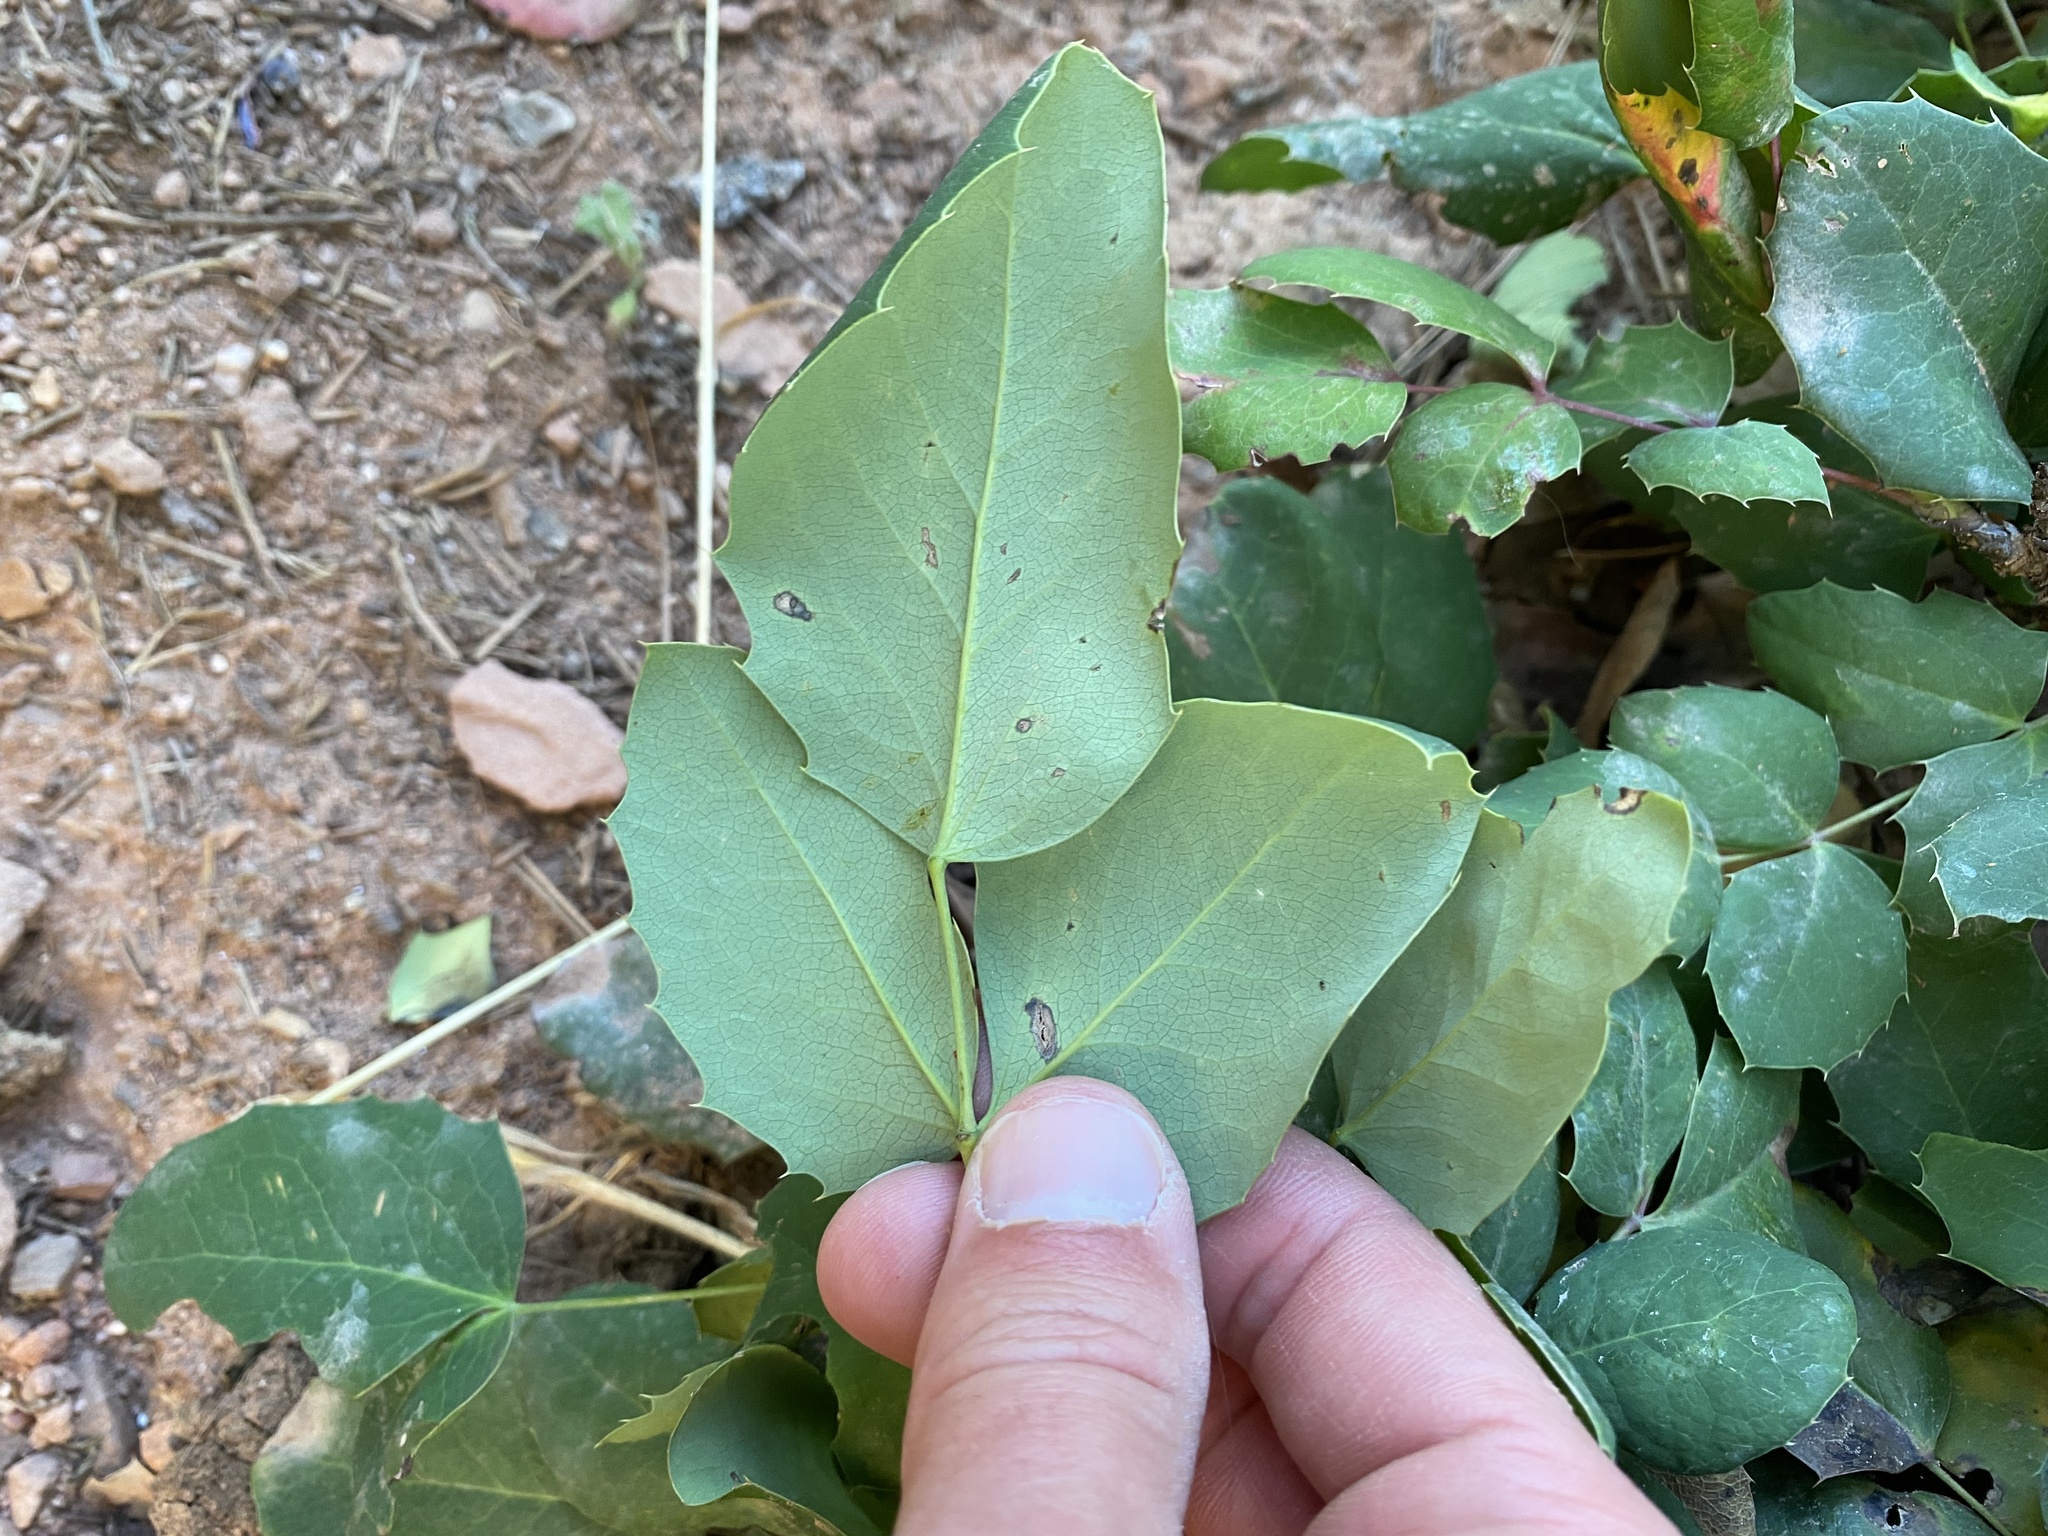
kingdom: Plantae
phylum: Tracheophyta
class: Magnoliopsida
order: Ranunculales
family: Berberidaceae
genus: Mahonia
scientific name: Mahonia repens
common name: Creeping oregon-grape
